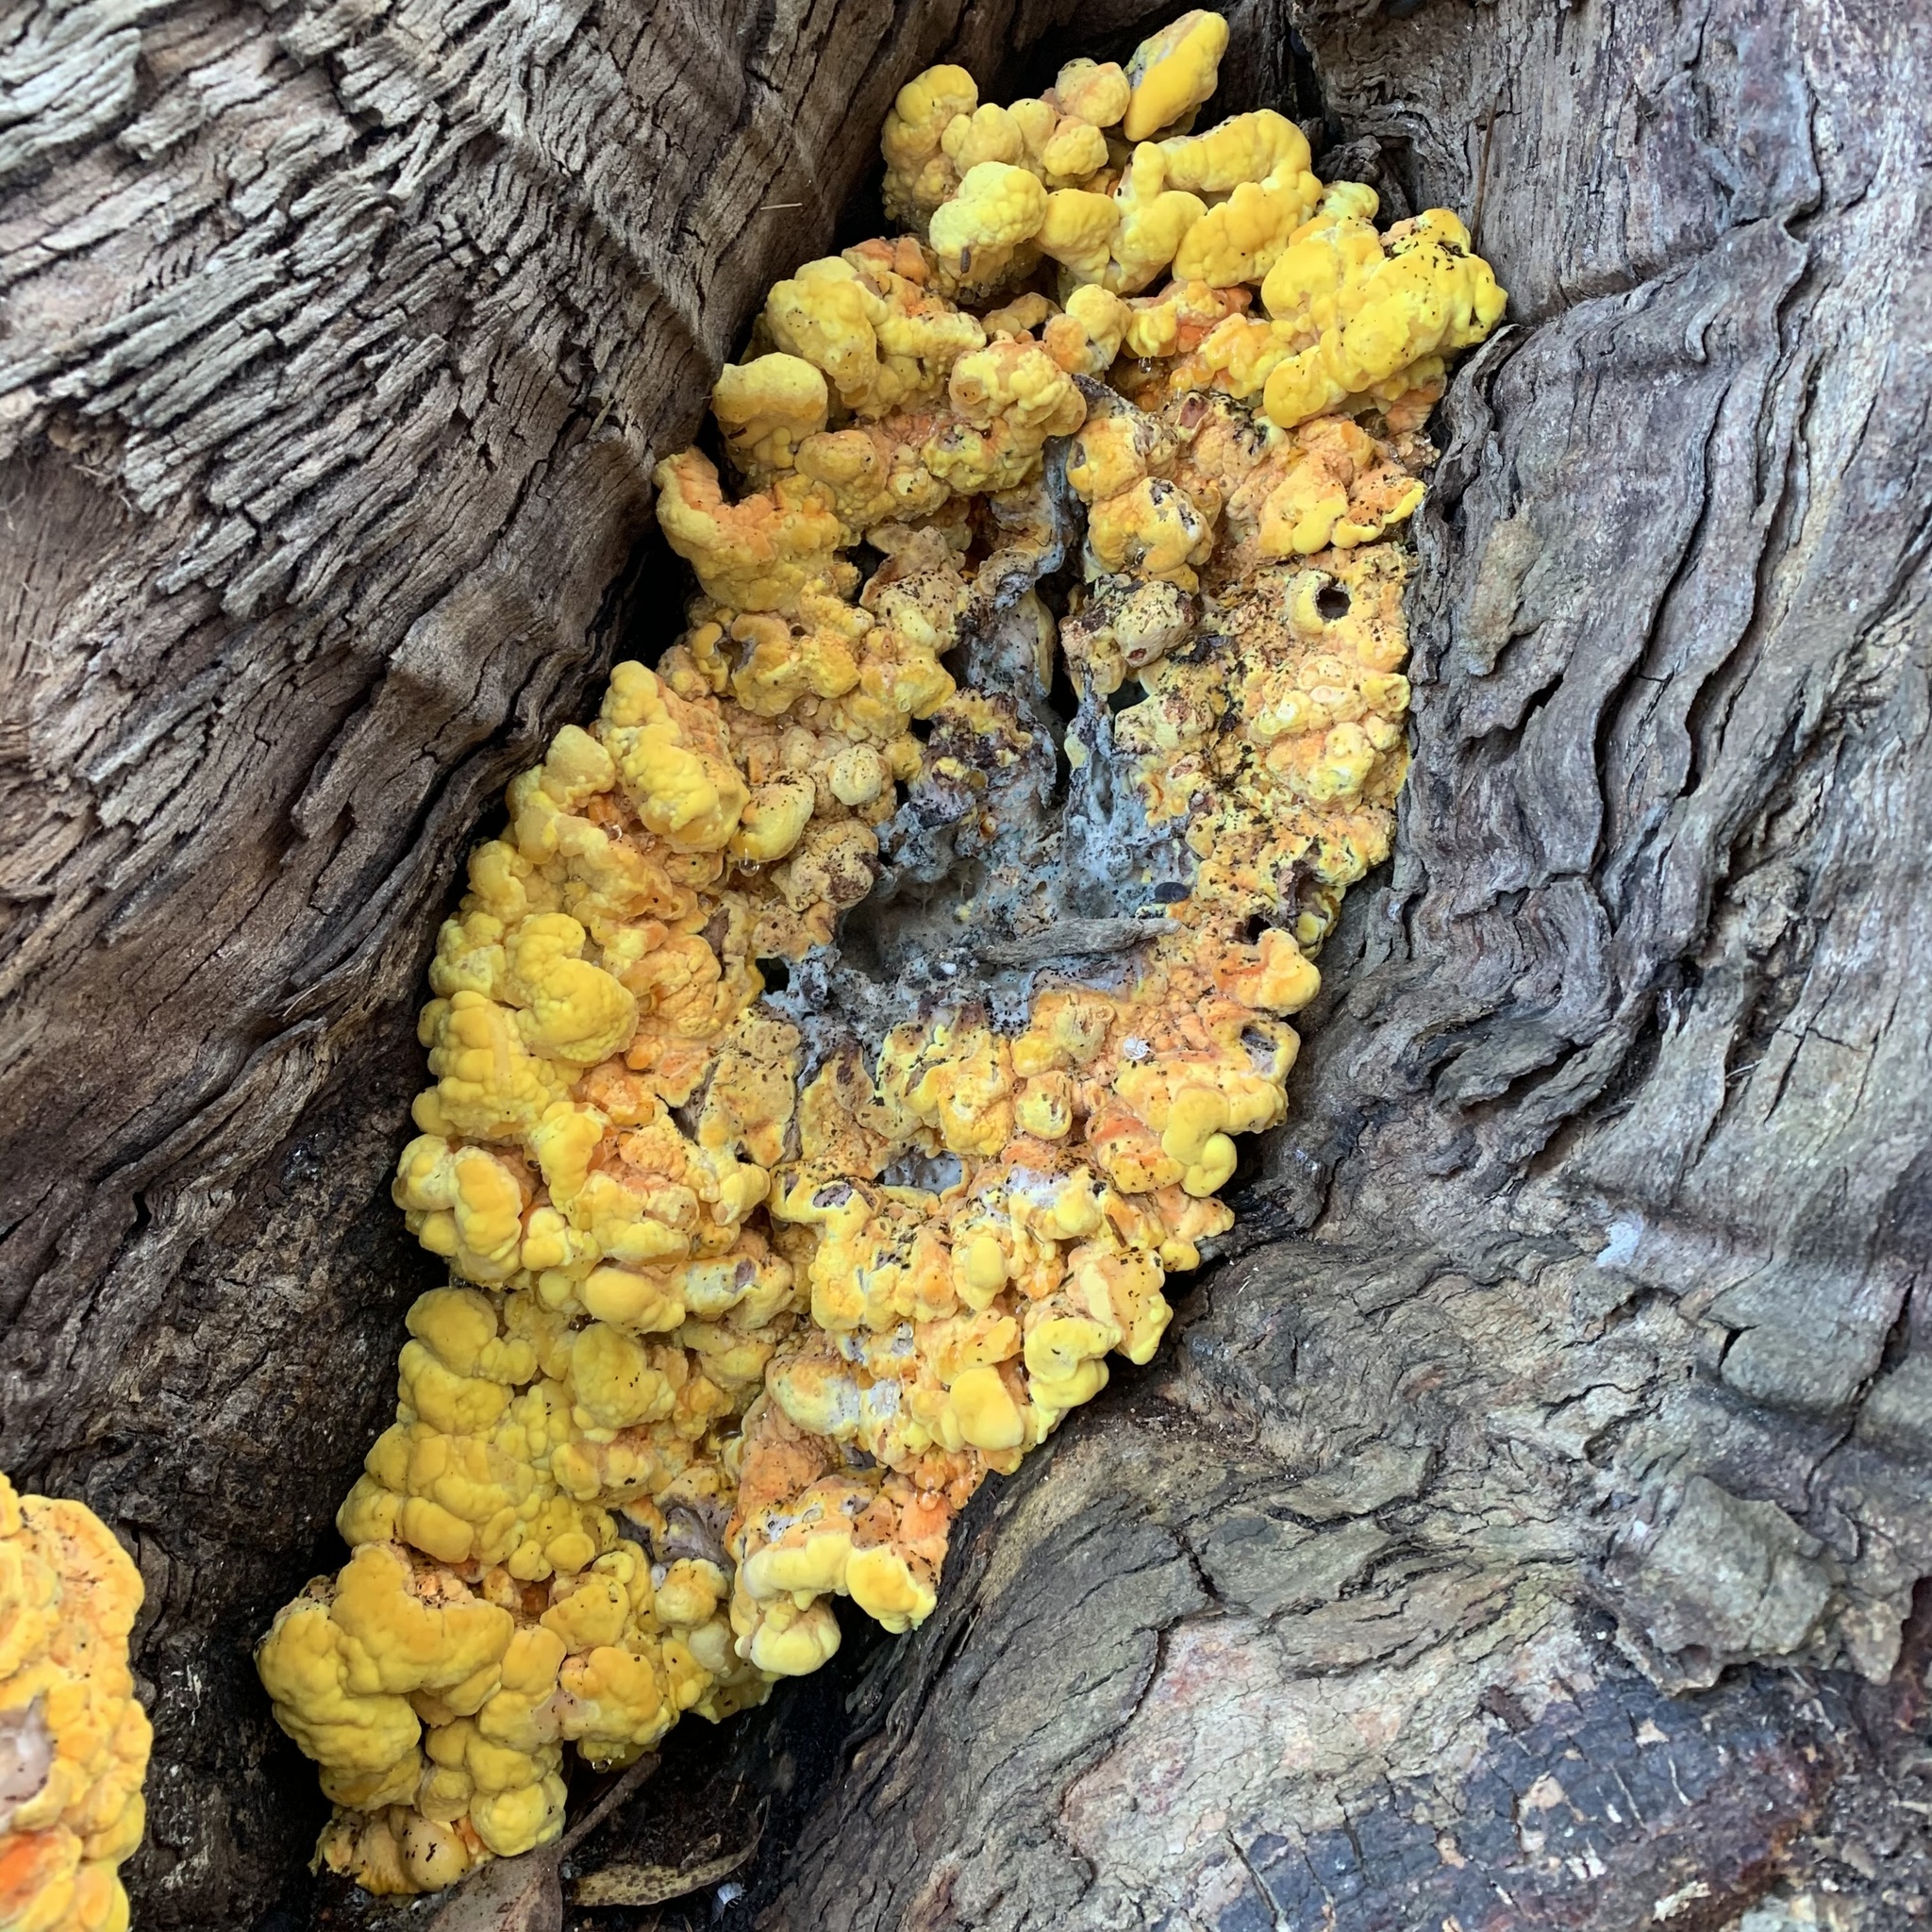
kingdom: Fungi
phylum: Basidiomycota
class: Agaricomycetes
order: Polyporales
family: Laetiporaceae
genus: Laetiporus
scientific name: Laetiporus gilbertsonii
